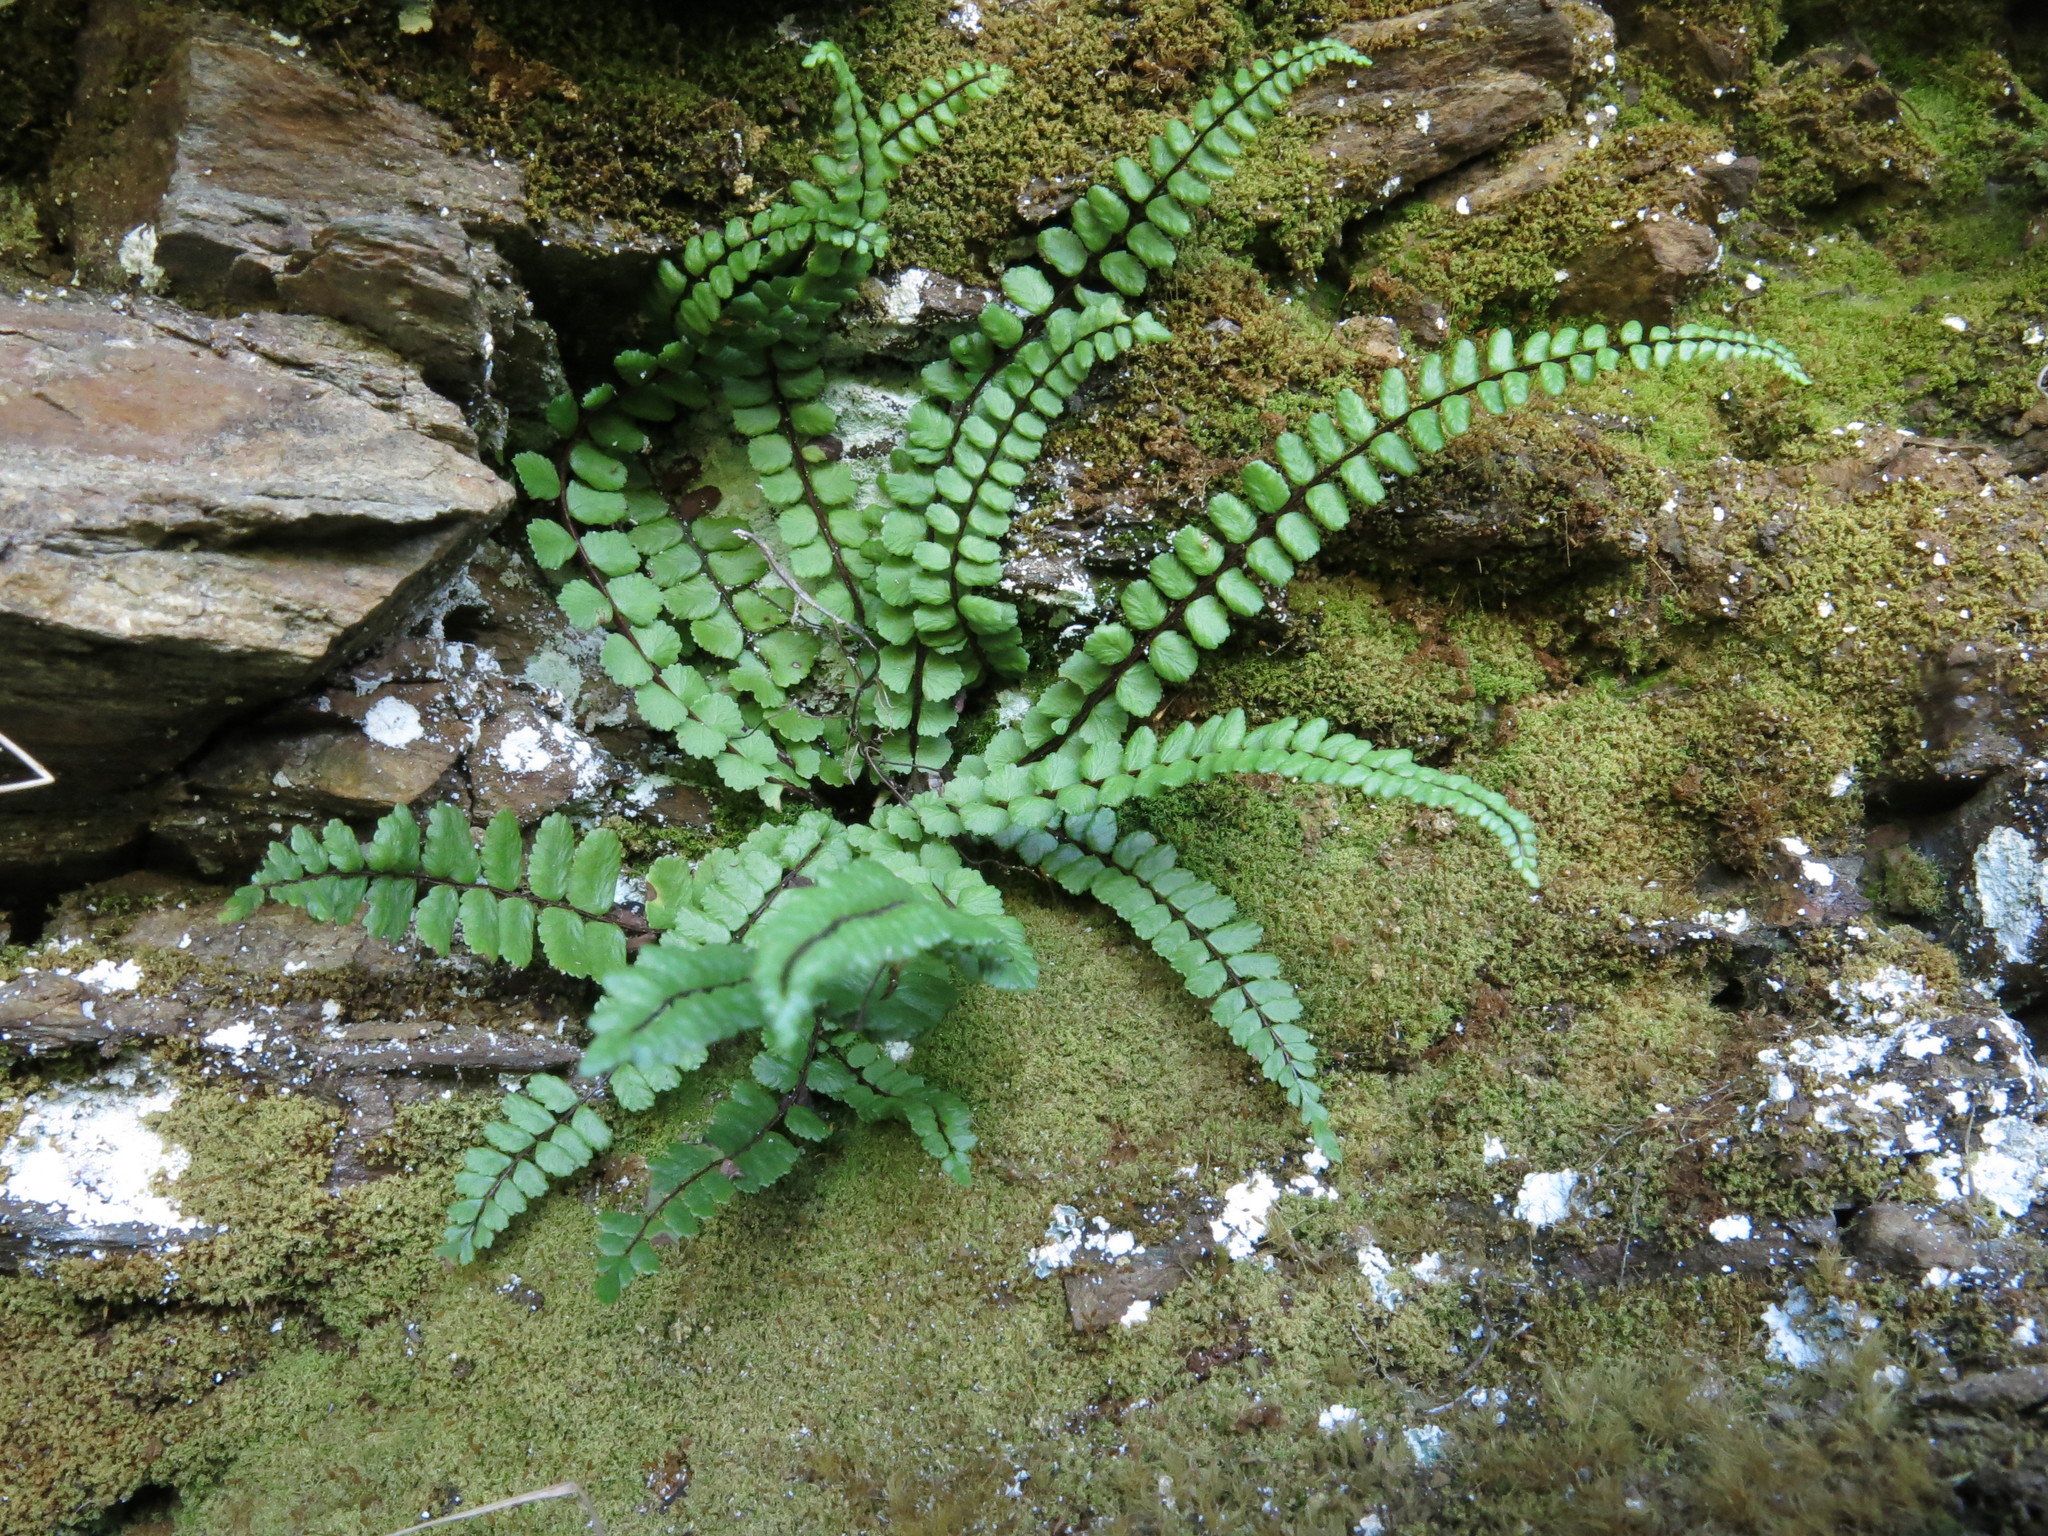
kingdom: Plantae
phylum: Tracheophyta
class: Polypodiopsida
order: Polypodiales
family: Aspleniaceae
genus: Asplenium
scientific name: Asplenium trichomanes
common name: Maidenhair spleenwort
